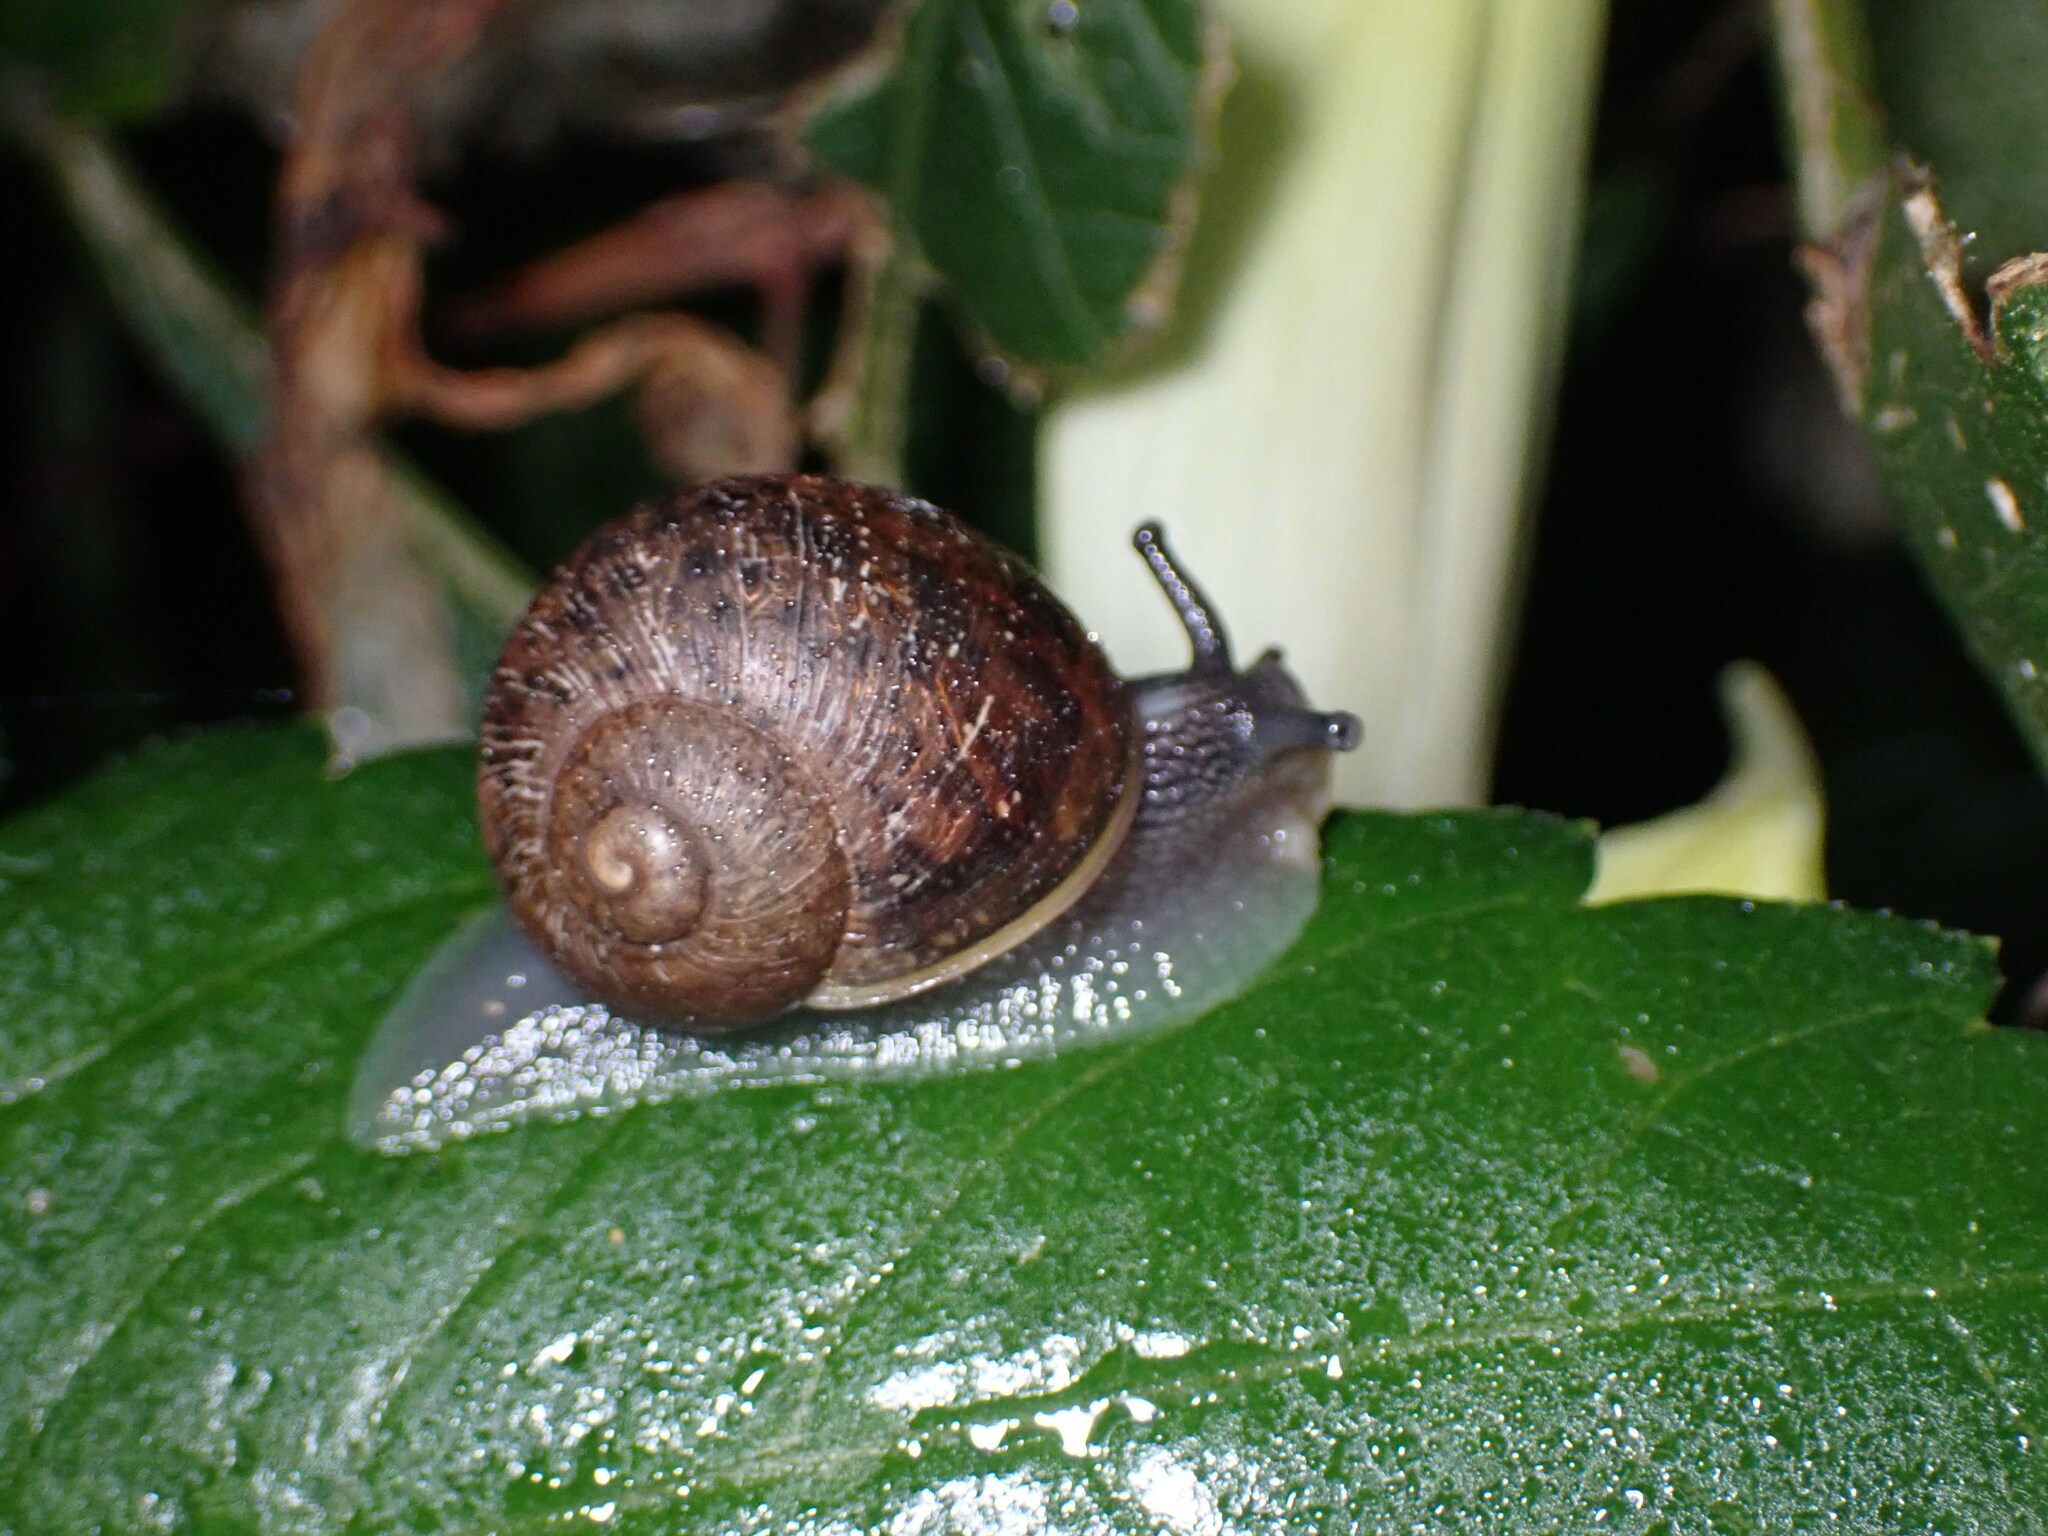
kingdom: Animalia
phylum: Mollusca
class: Gastropoda
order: Stylommatophora
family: Helicidae
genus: Cornu
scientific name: Cornu aspersum
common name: Brown garden snail
